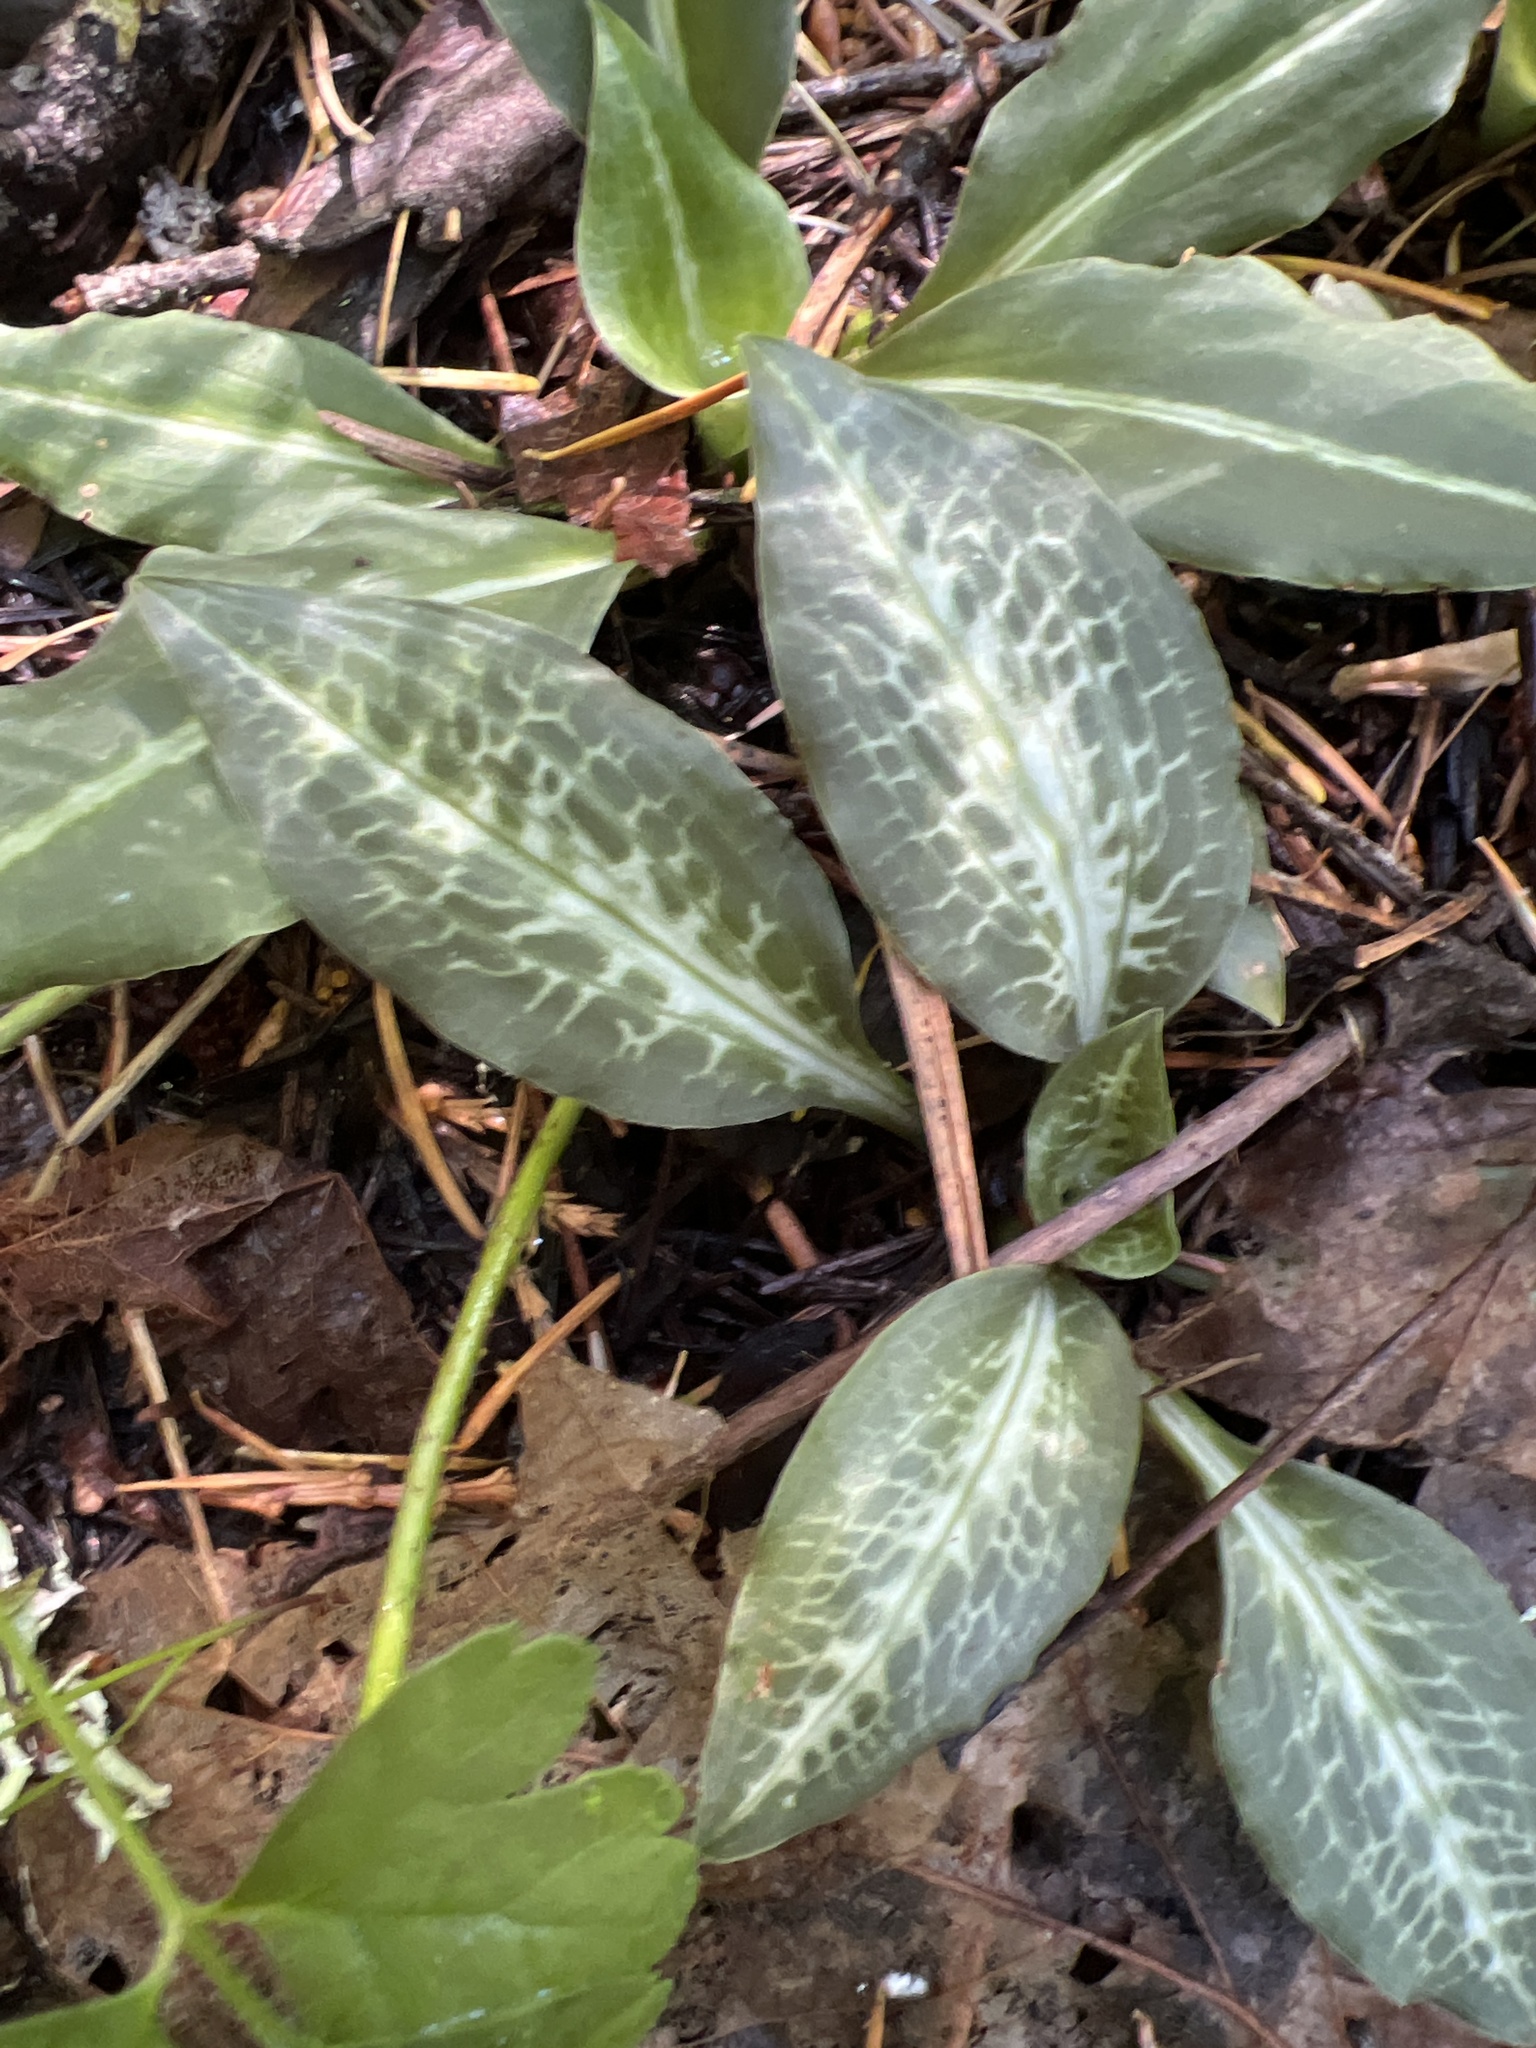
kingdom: Plantae
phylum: Tracheophyta
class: Liliopsida
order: Asparagales
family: Orchidaceae
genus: Goodyera
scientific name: Goodyera oblongifolia
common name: Giant rattlesnake-plantain
